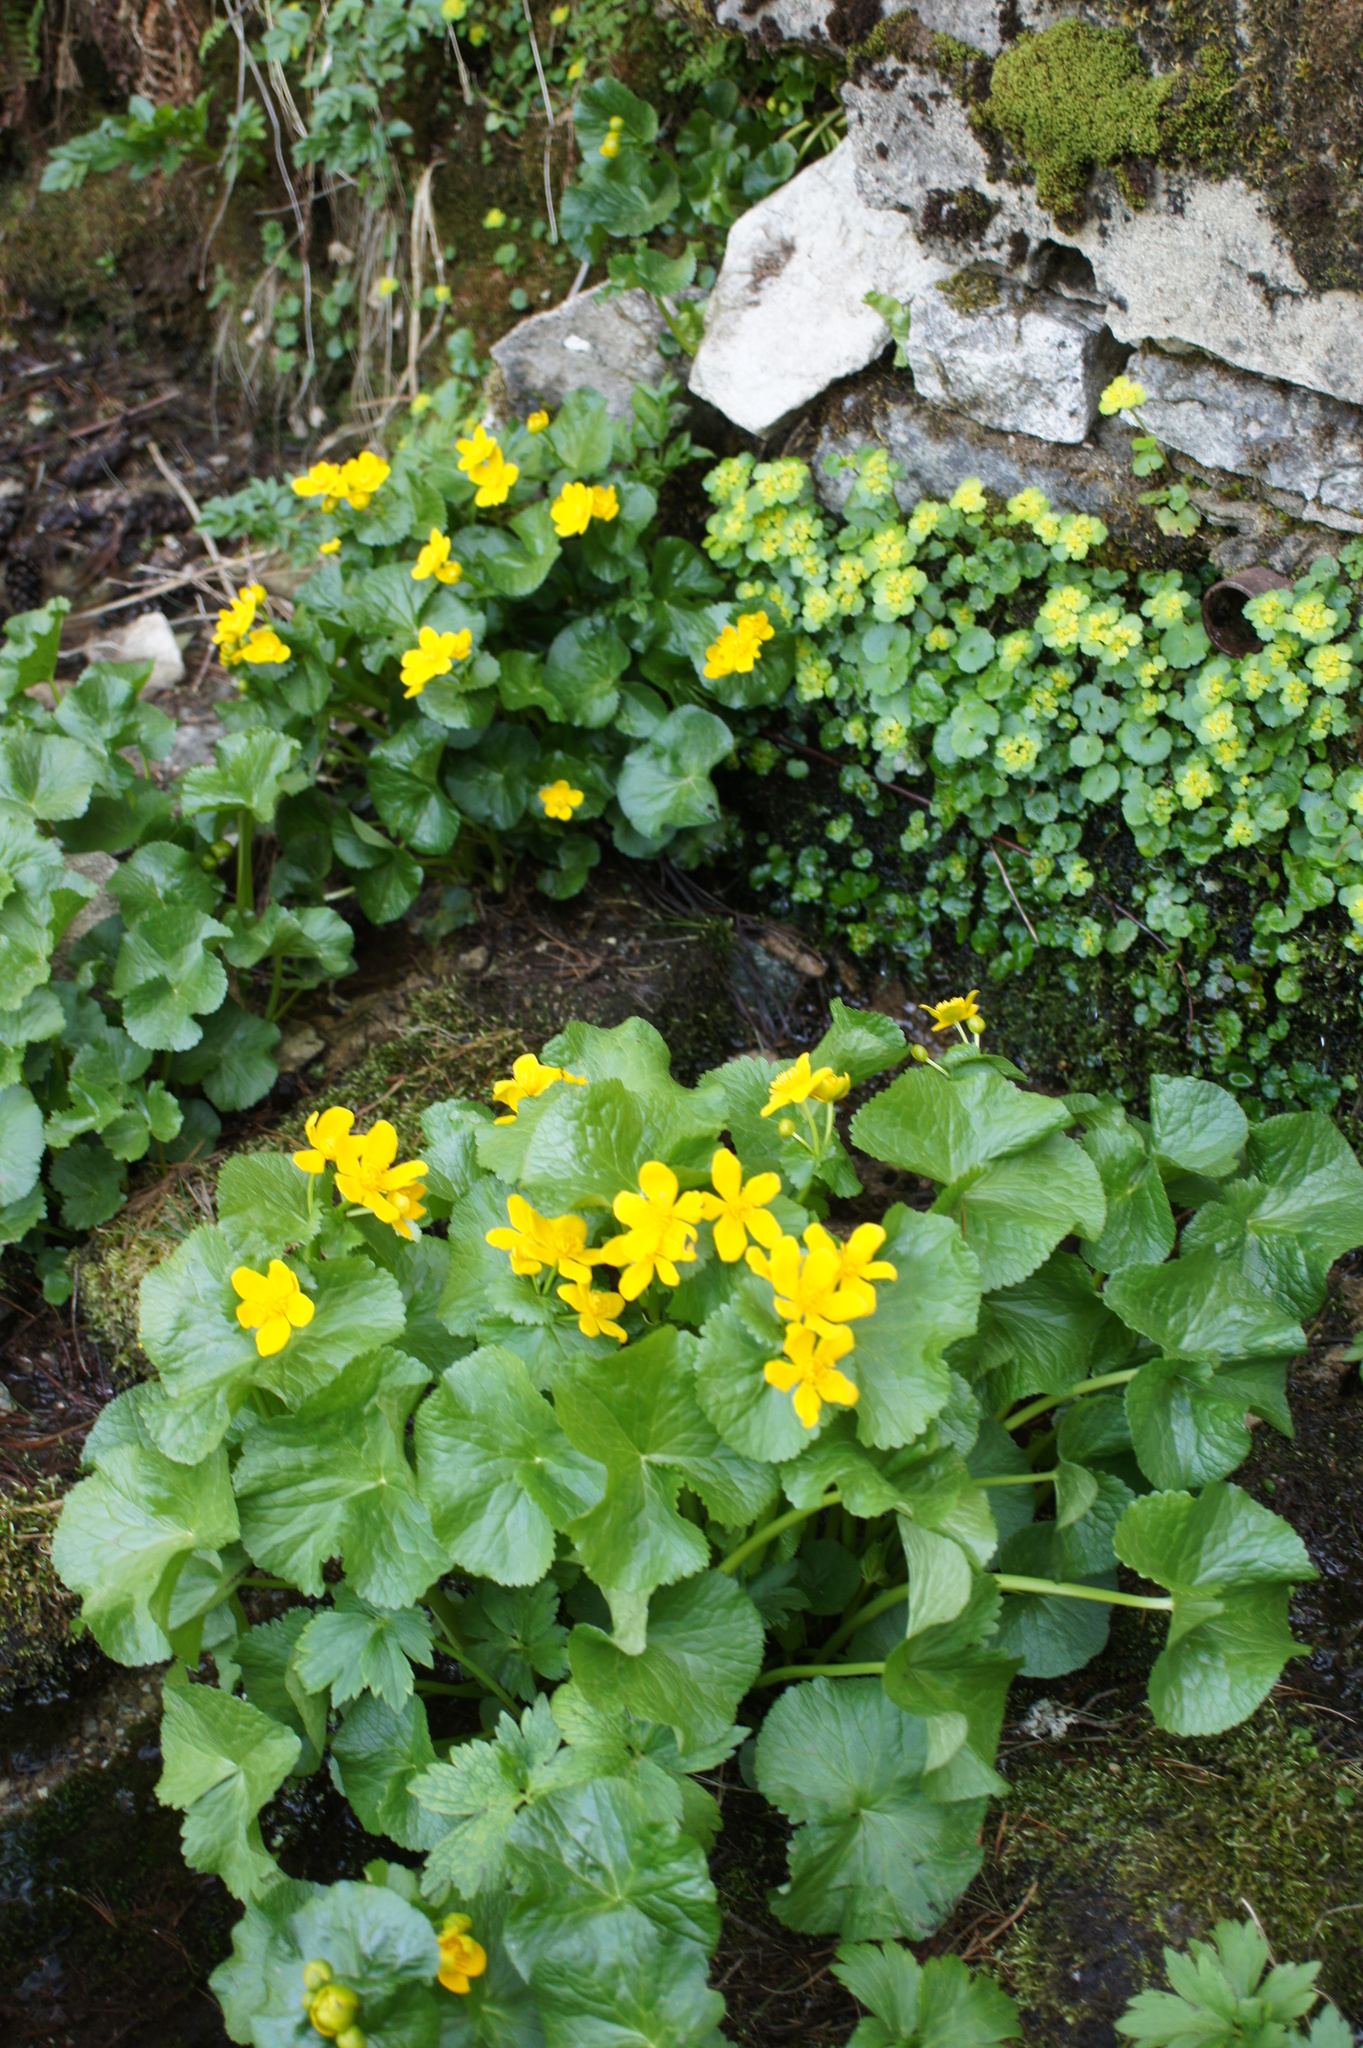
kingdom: Plantae
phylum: Tracheophyta
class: Magnoliopsida
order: Ranunculales
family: Ranunculaceae
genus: Caltha
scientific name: Caltha palustris
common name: Marsh marigold
